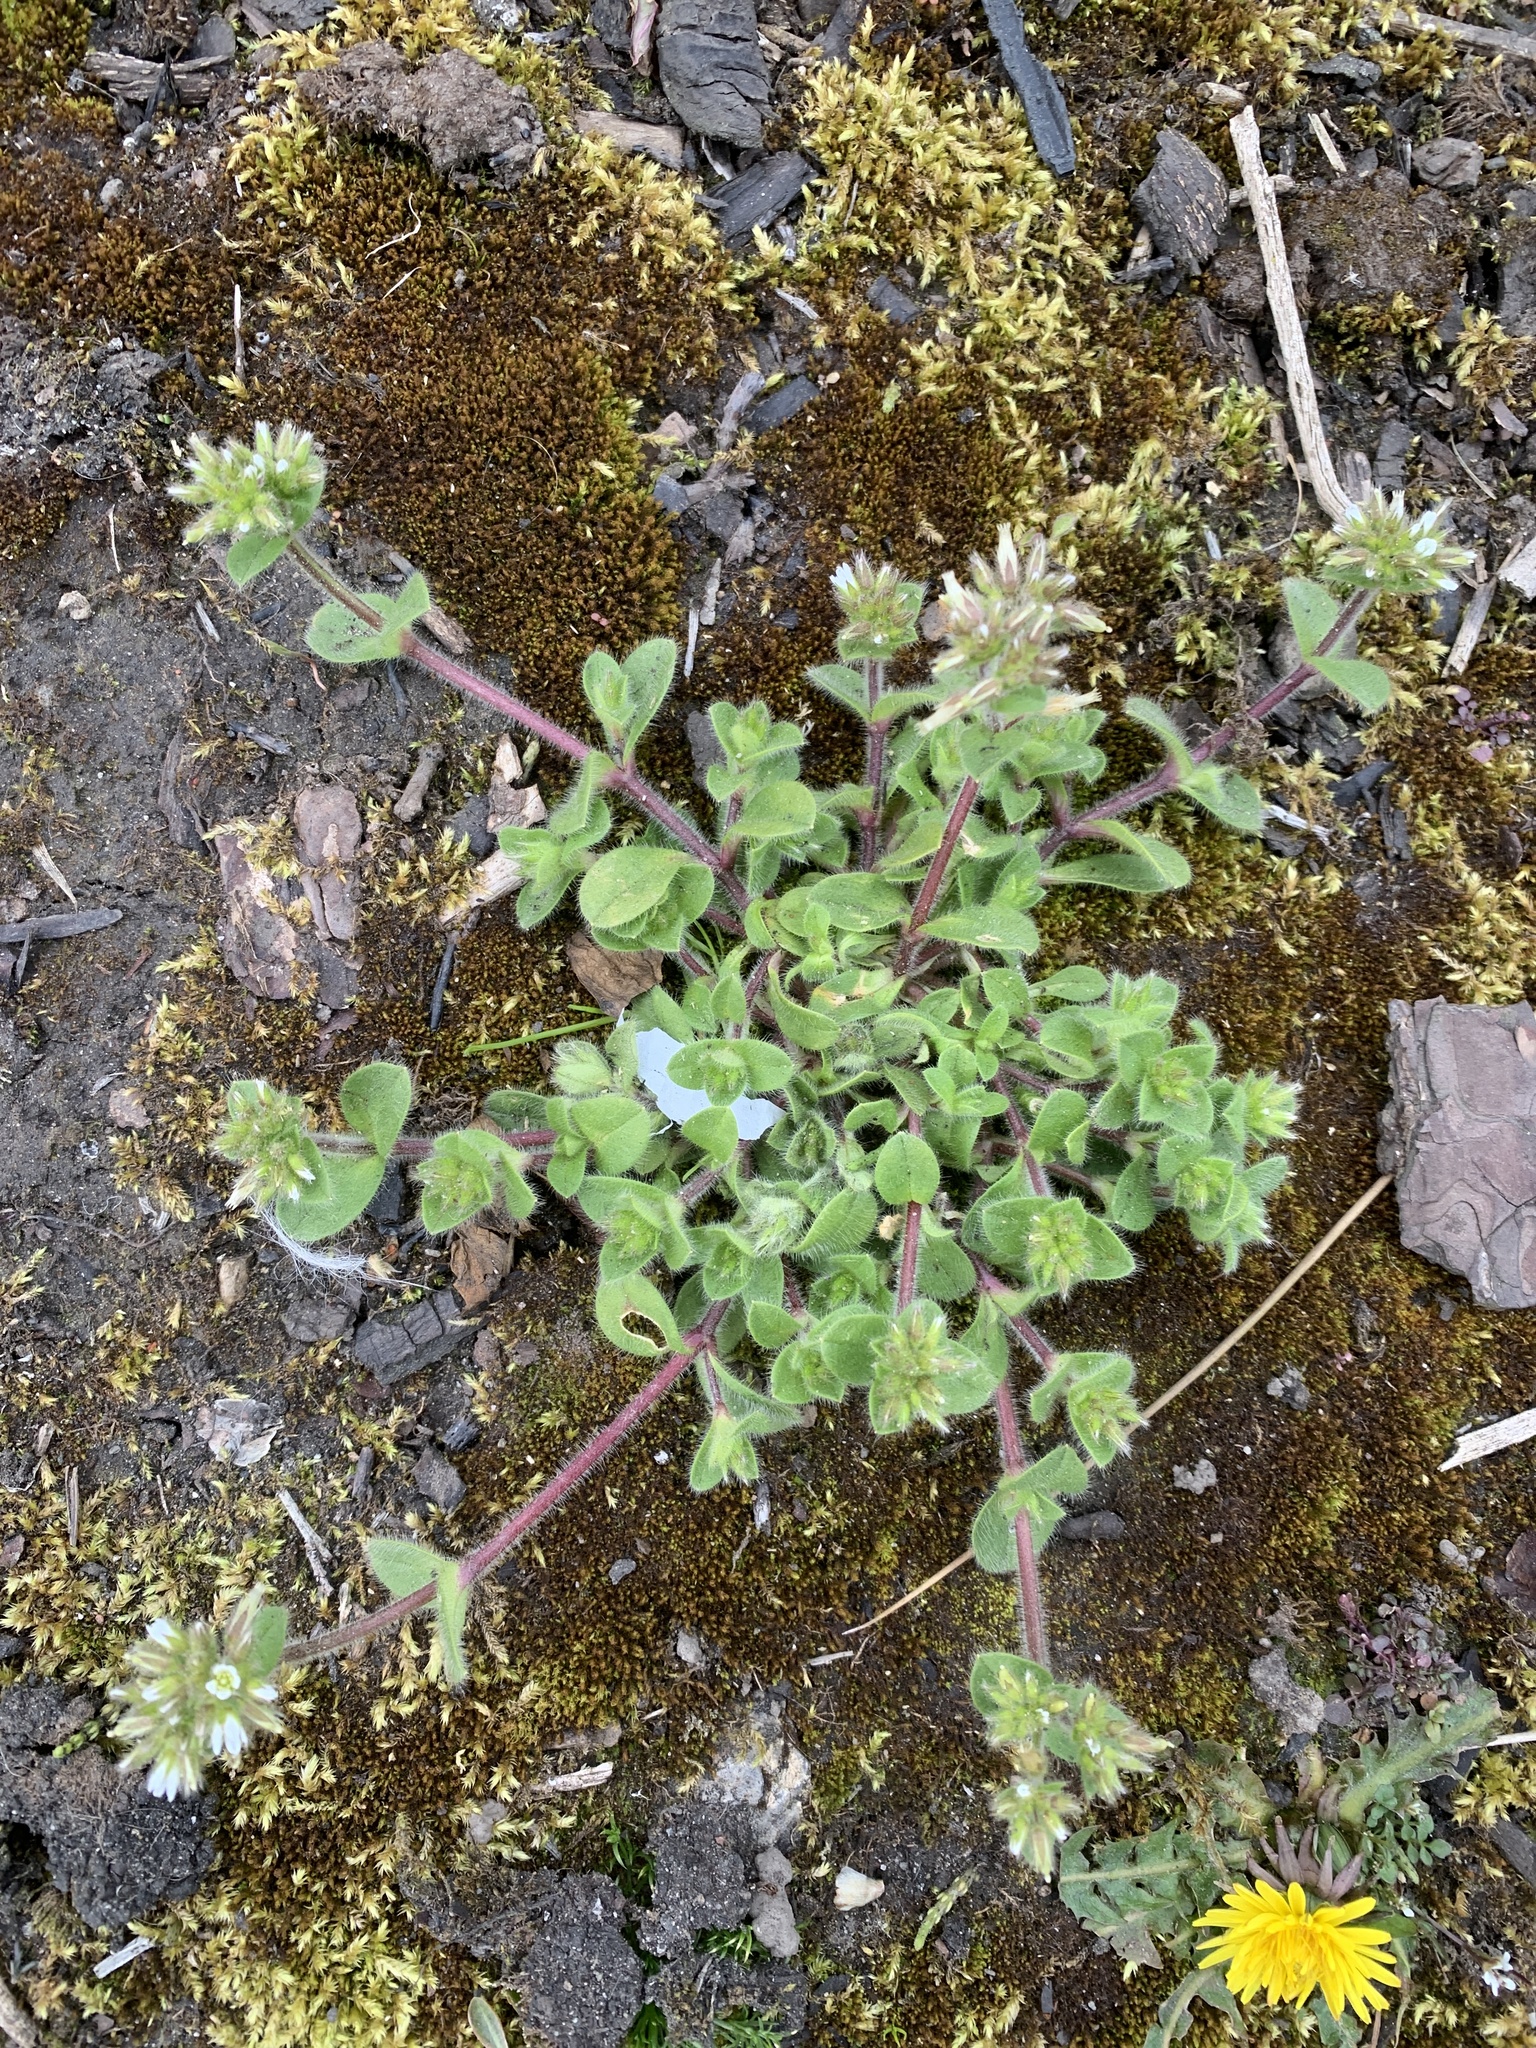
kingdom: Plantae
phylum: Tracheophyta
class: Magnoliopsida
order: Caryophyllales
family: Caryophyllaceae
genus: Cerastium
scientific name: Cerastium glomeratum
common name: Sticky chickweed
